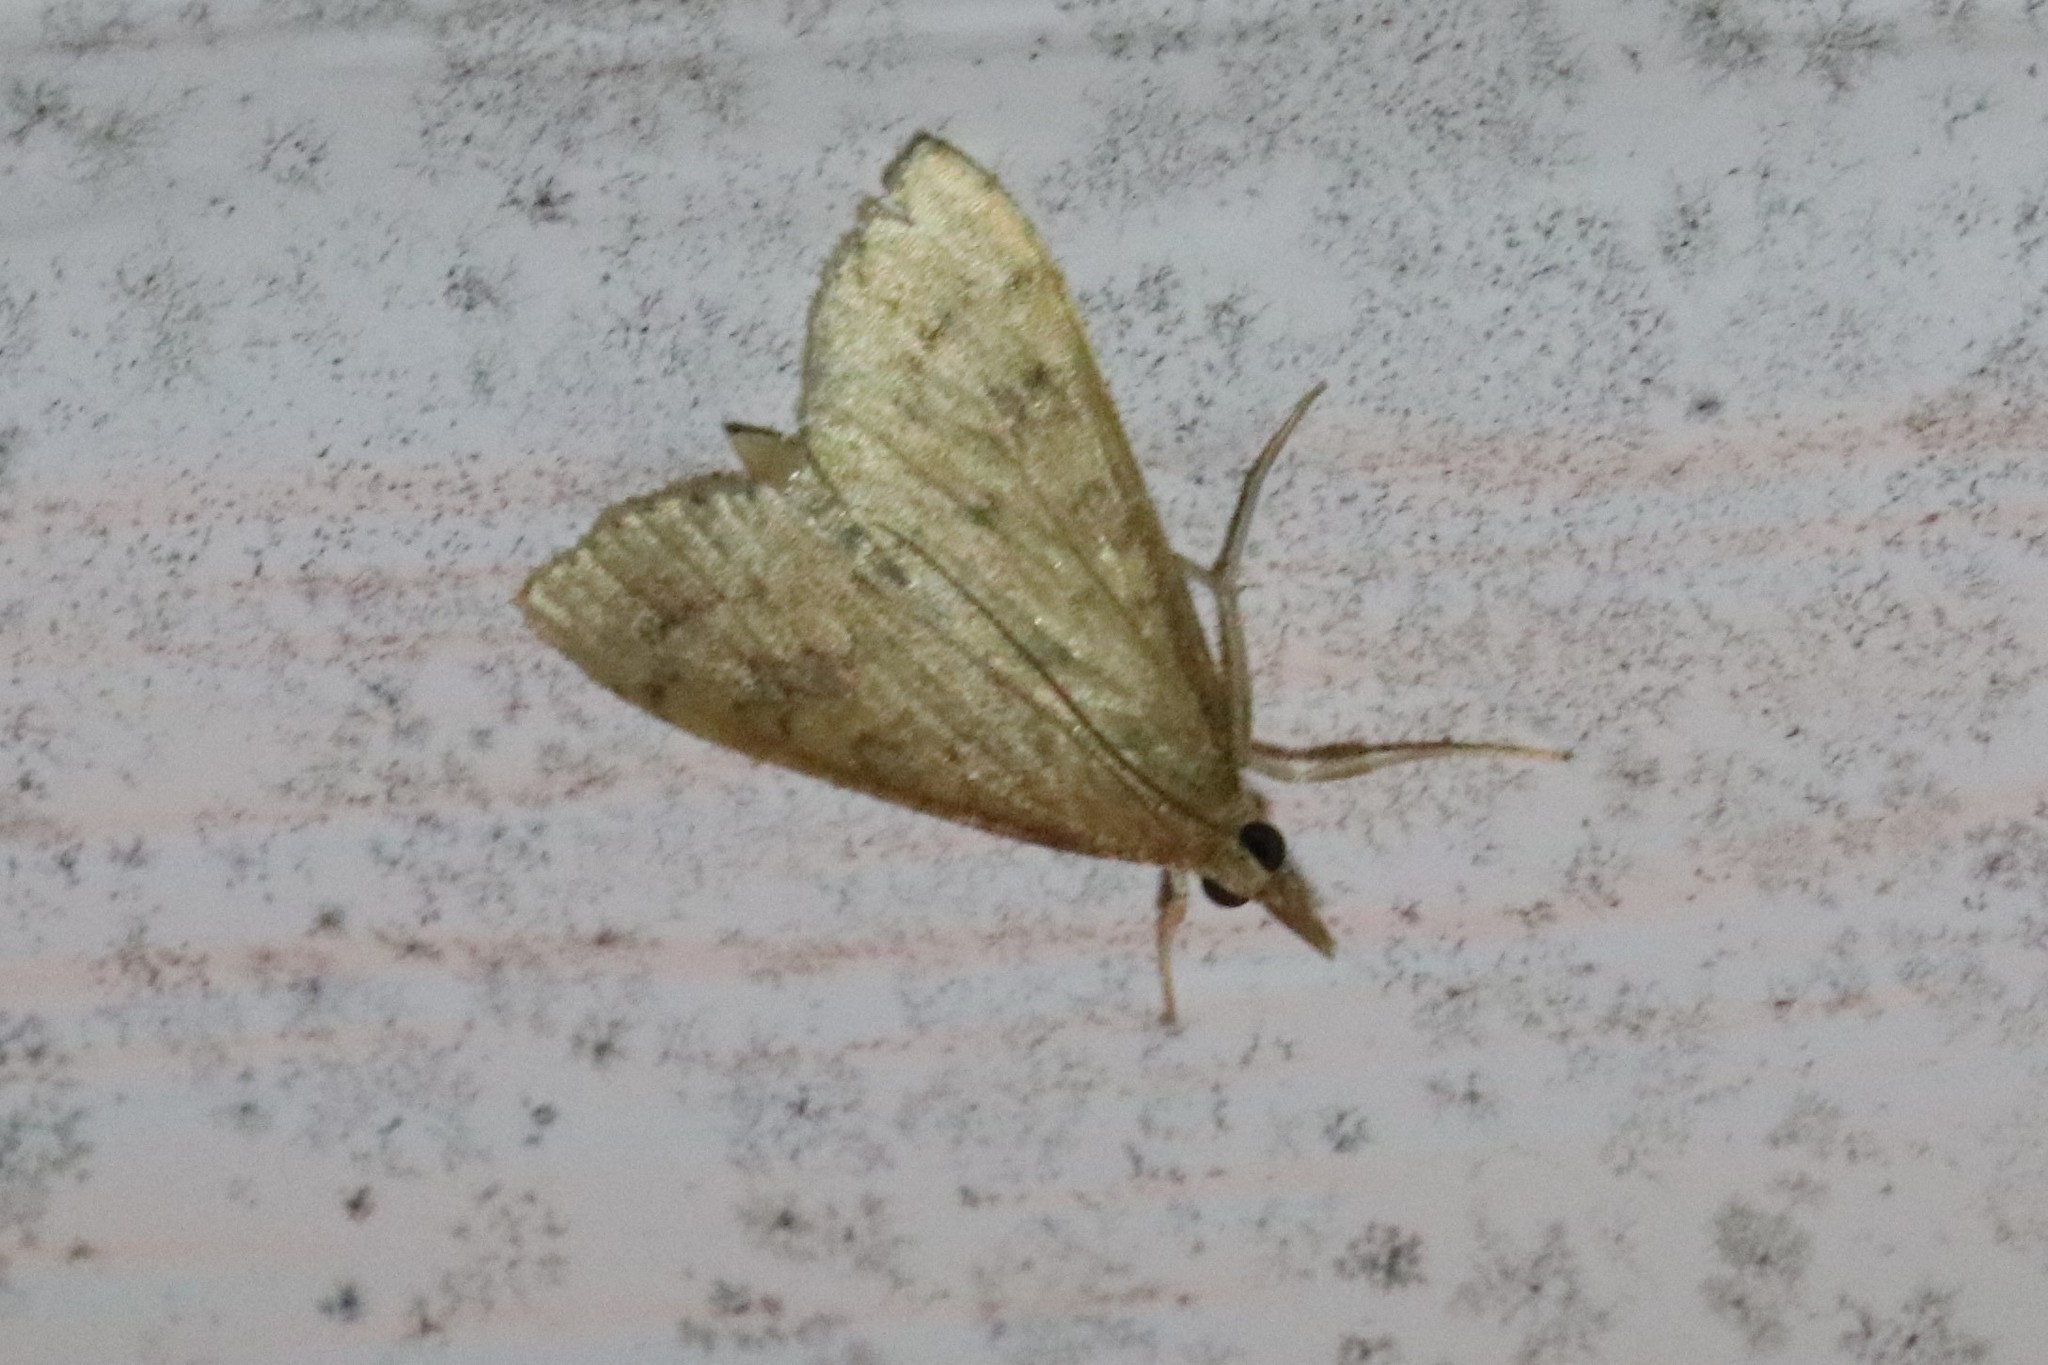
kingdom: Animalia
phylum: Arthropoda
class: Insecta
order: Lepidoptera
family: Crambidae
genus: Udea
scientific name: Udea rubigalis
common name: Celery leaftier moth
